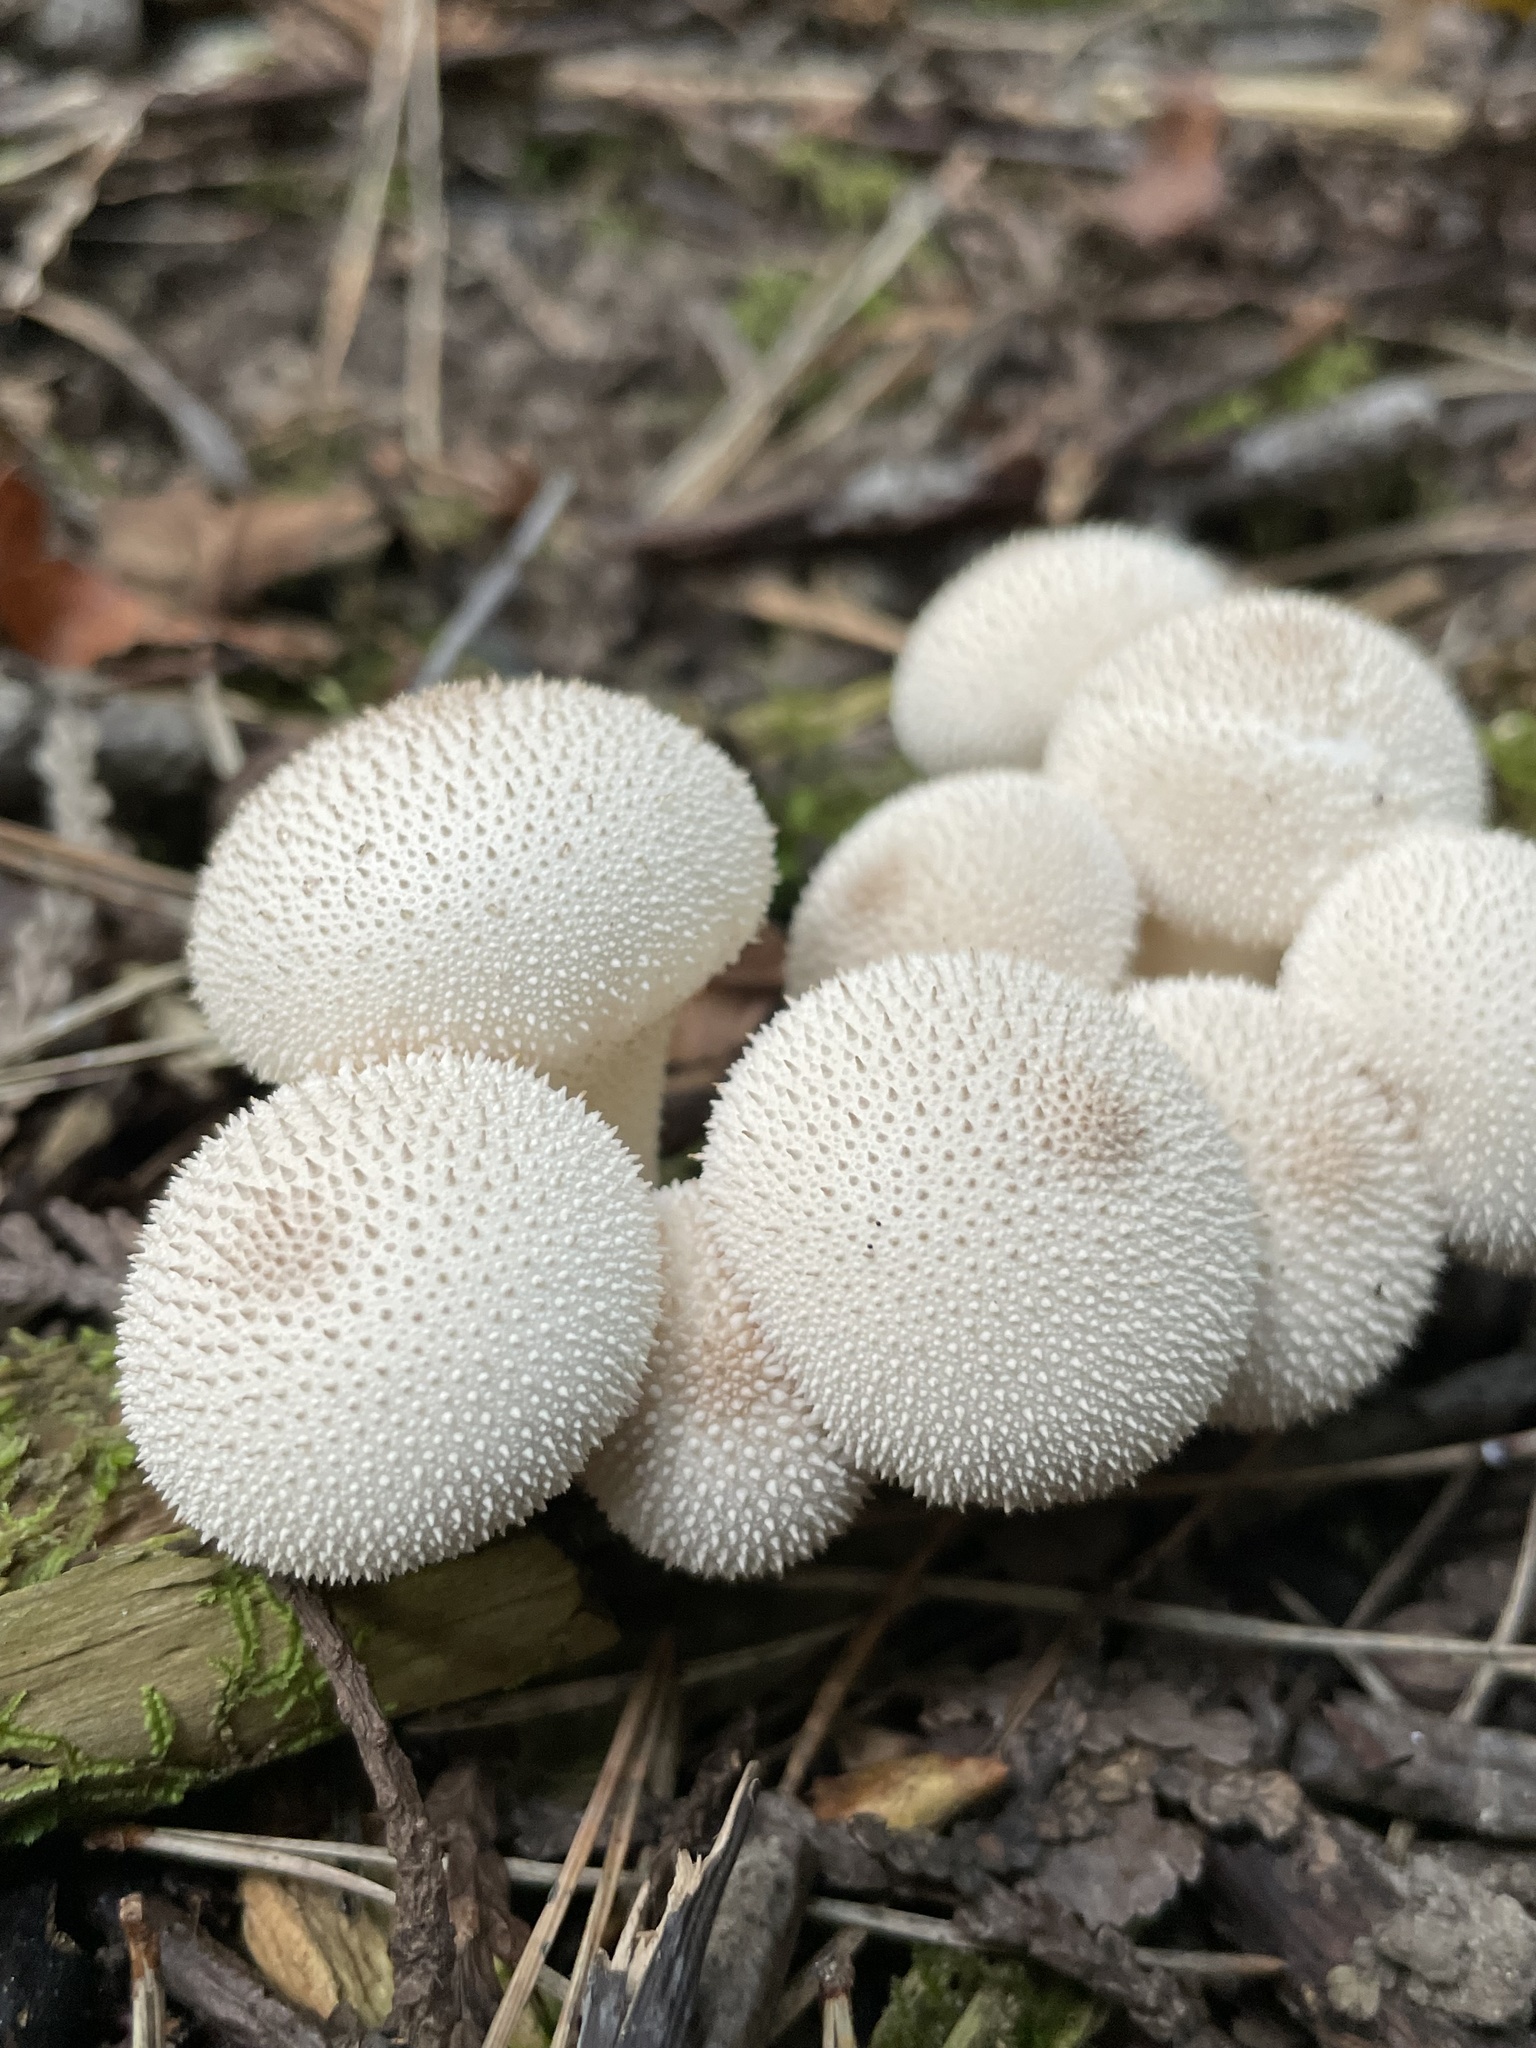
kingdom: Fungi
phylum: Basidiomycota
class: Agaricomycetes
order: Agaricales
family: Lycoperdaceae
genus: Lycoperdon
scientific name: Lycoperdon perlatum
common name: Common puffball
